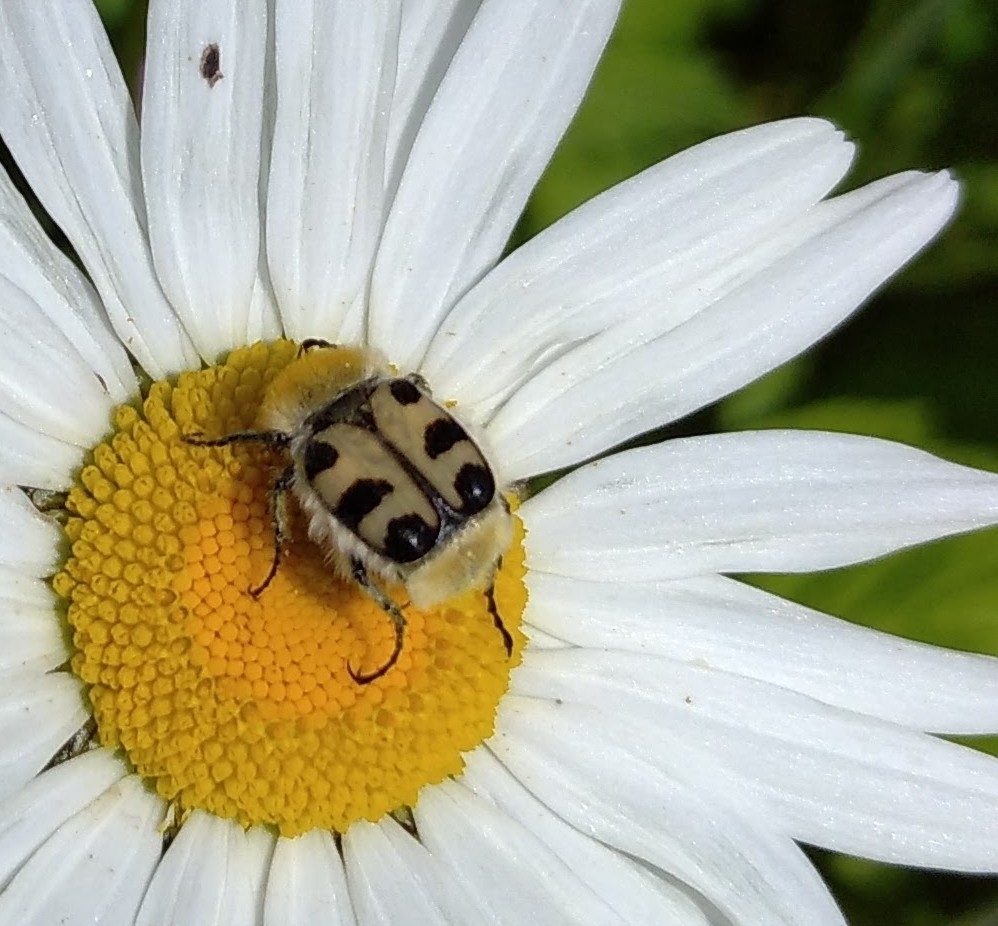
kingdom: Animalia
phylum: Arthropoda
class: Insecta
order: Coleoptera
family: Scarabaeidae
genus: Trichius
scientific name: Trichius gallicus
